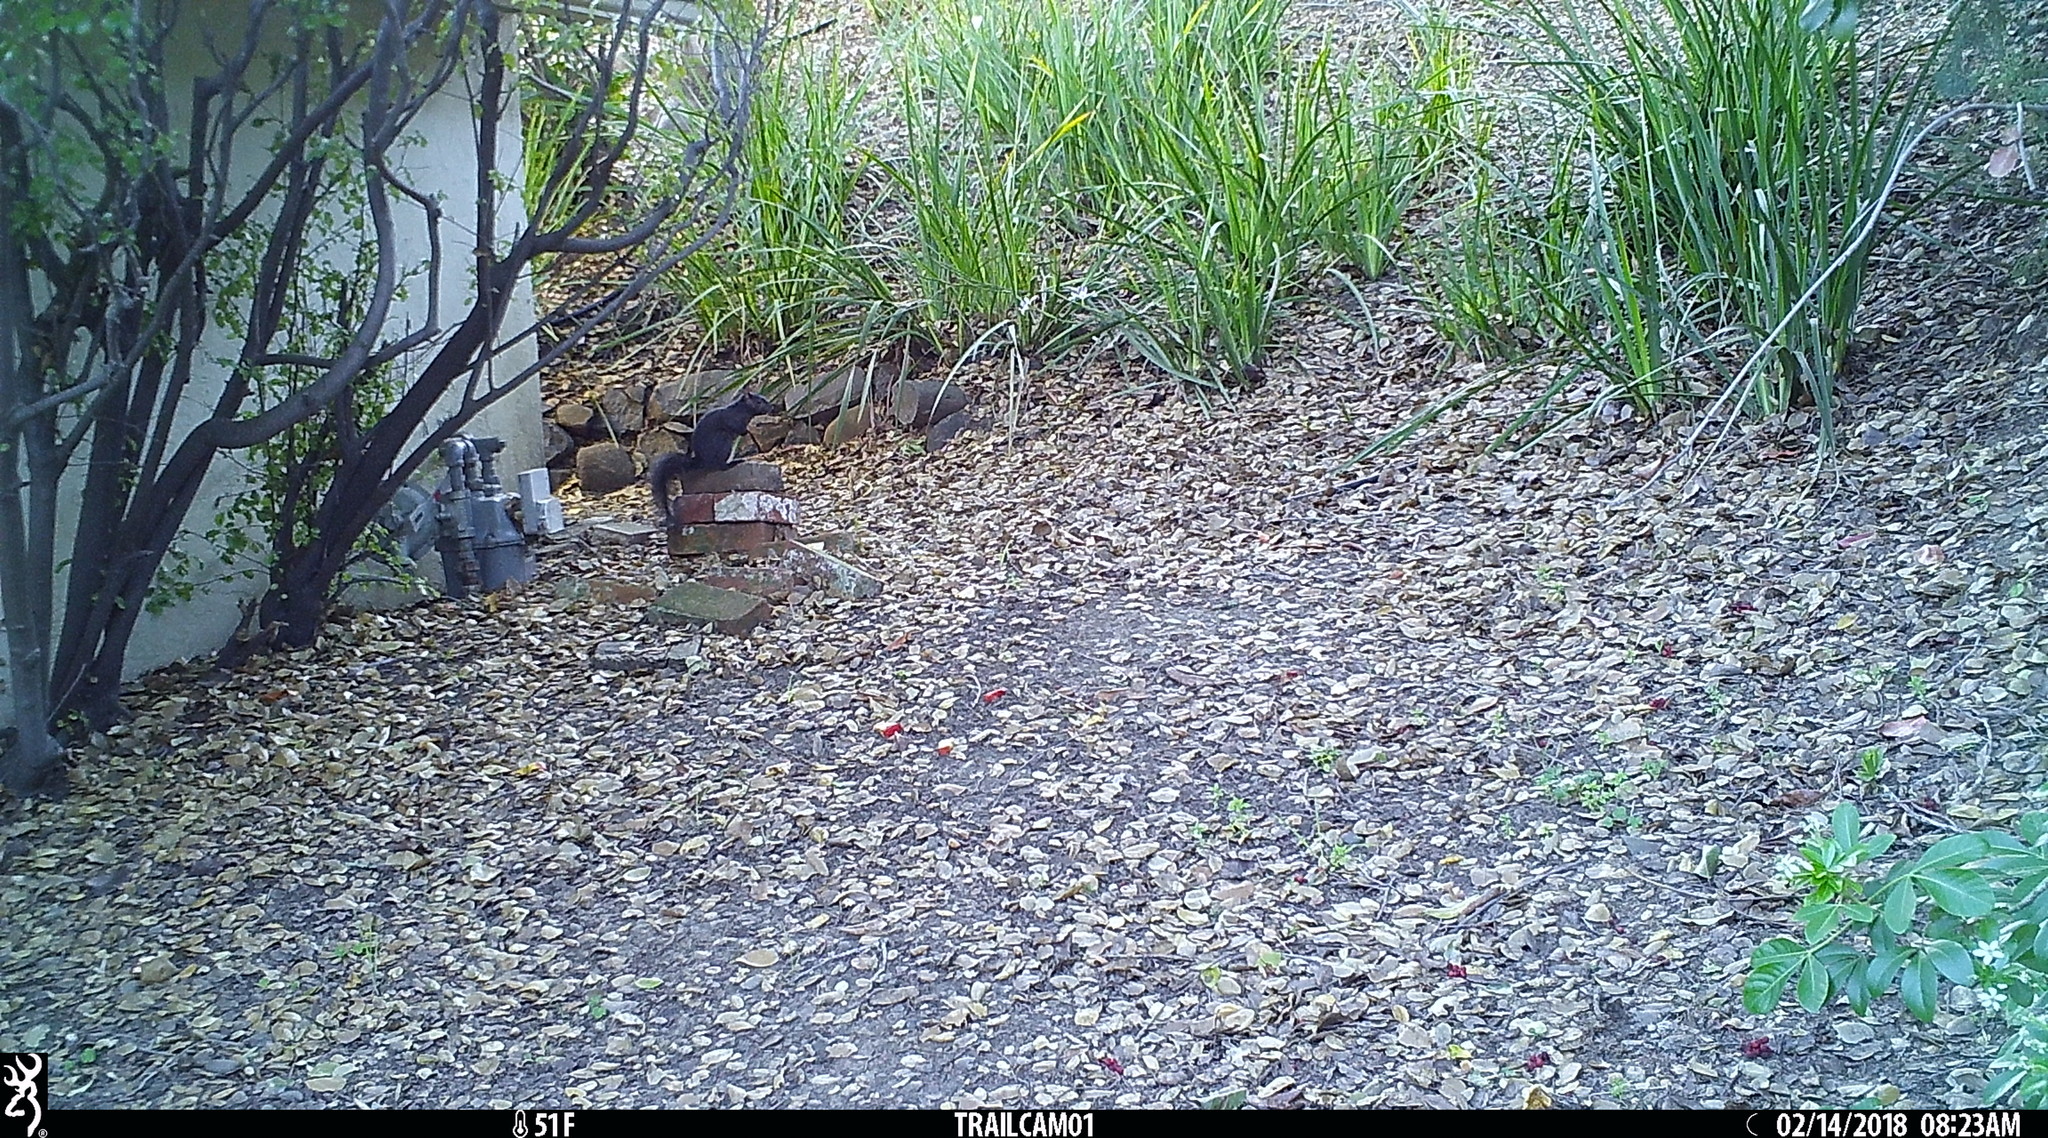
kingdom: Animalia
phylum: Chordata
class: Mammalia
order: Rodentia
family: Sciuridae
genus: Sciurus
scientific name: Sciurus carolinensis
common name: Eastern gray squirrel
